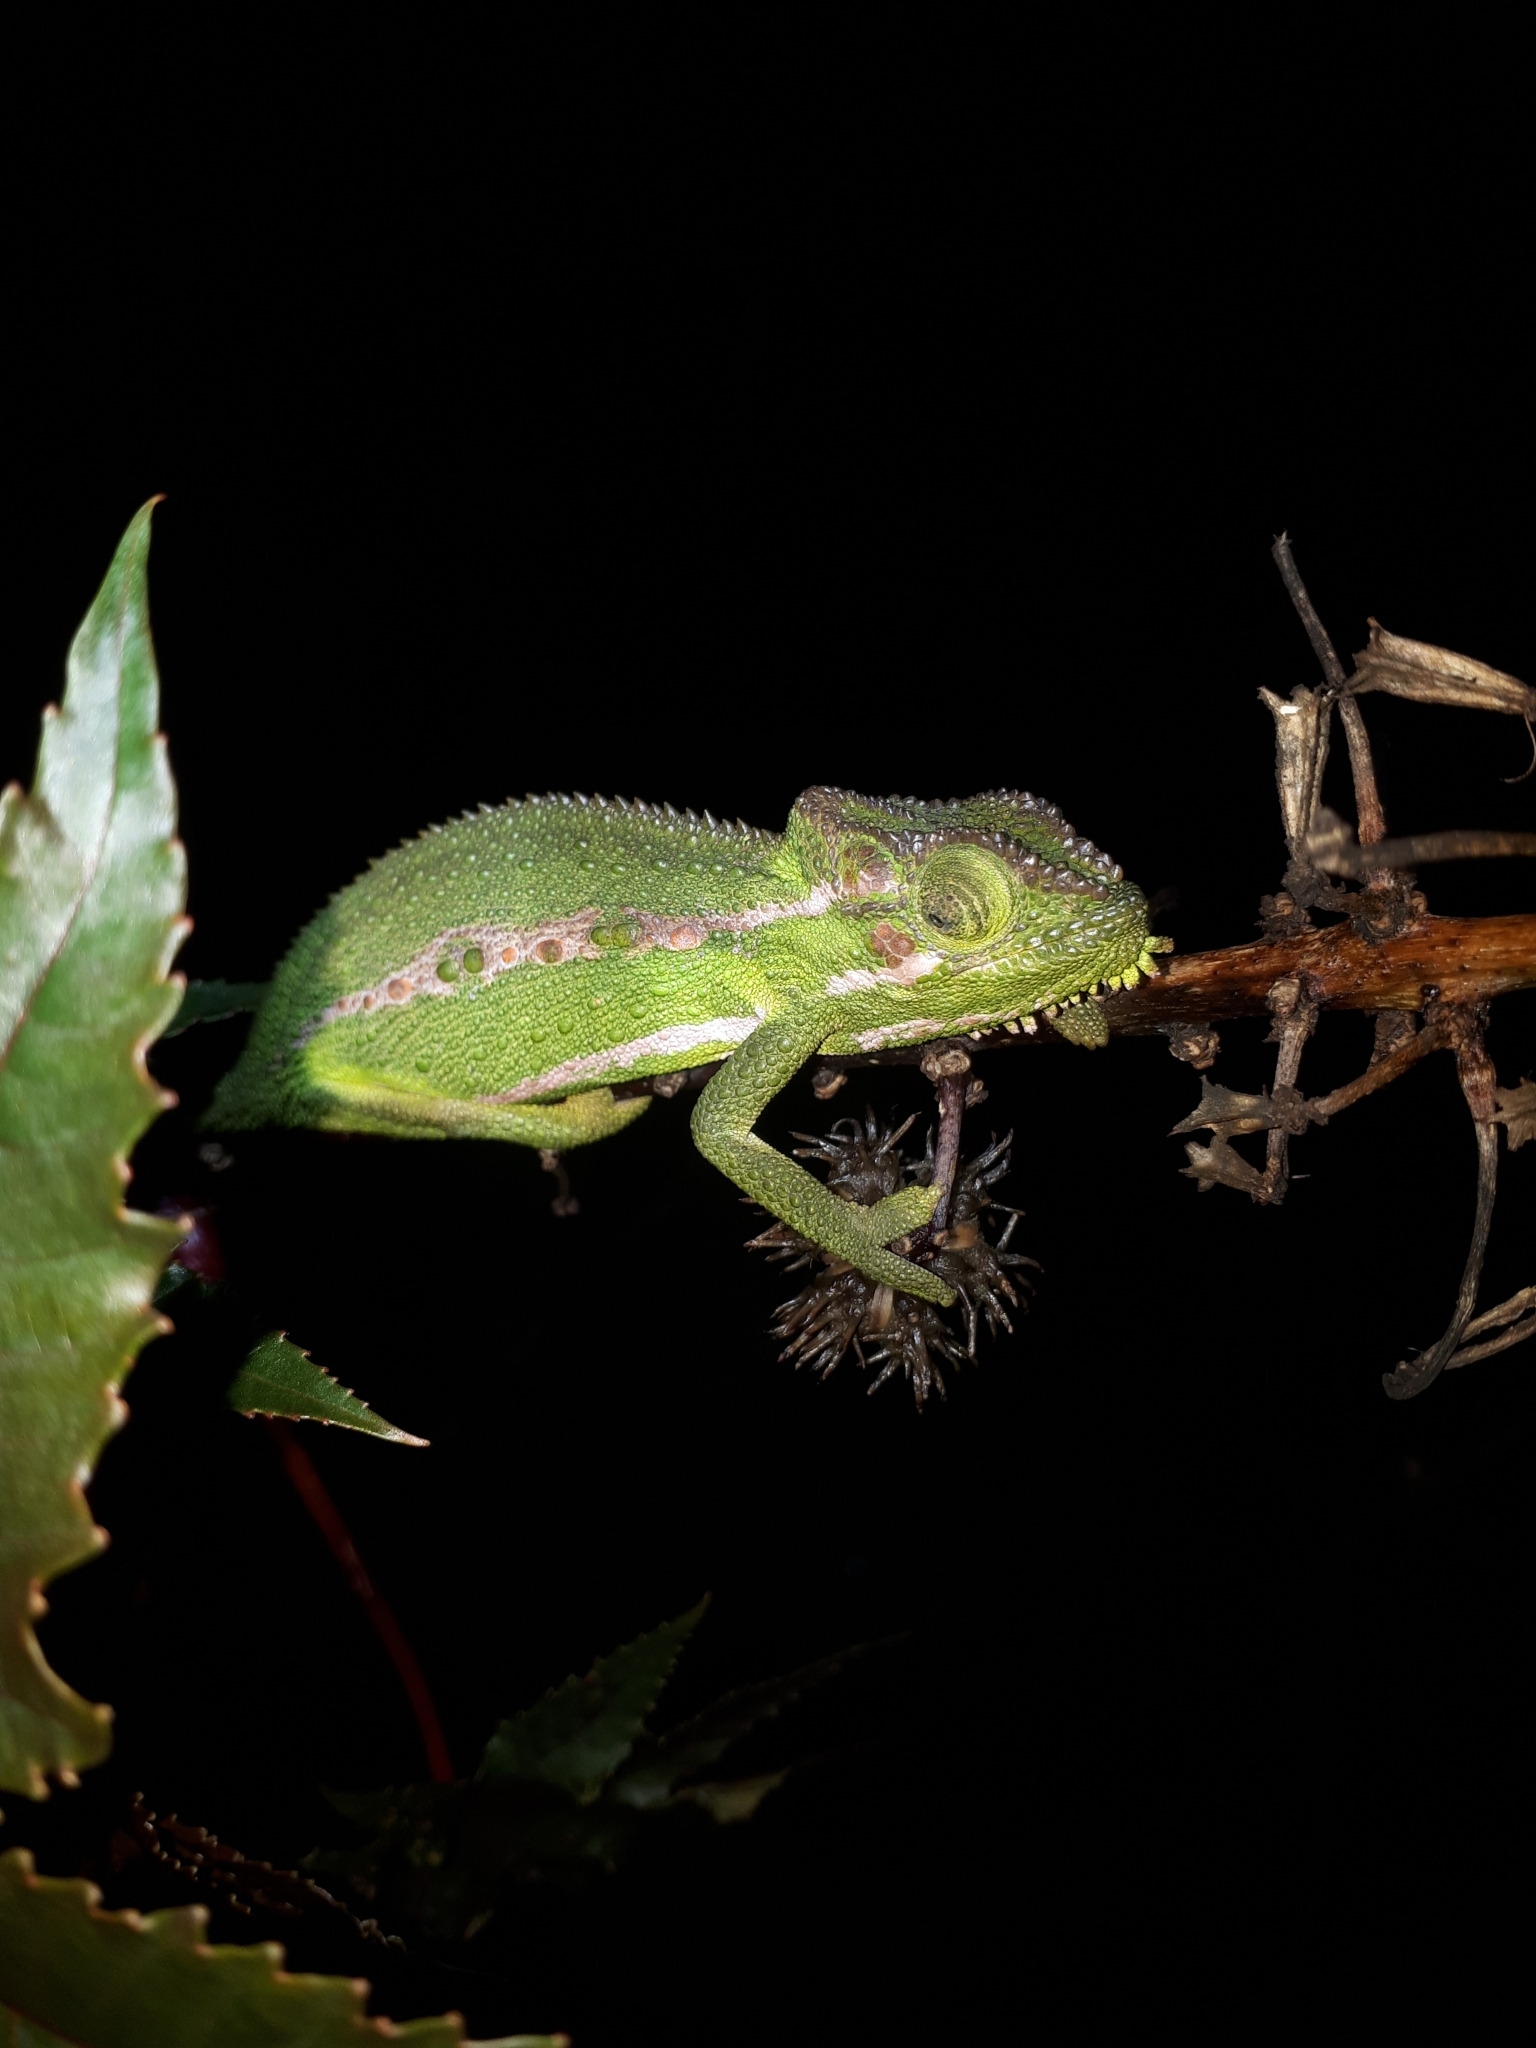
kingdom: Animalia
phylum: Chordata
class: Squamata
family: Chamaeleonidae
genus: Bradypodion
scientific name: Bradypodion pumilum
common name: Cape dwarf chameleon
